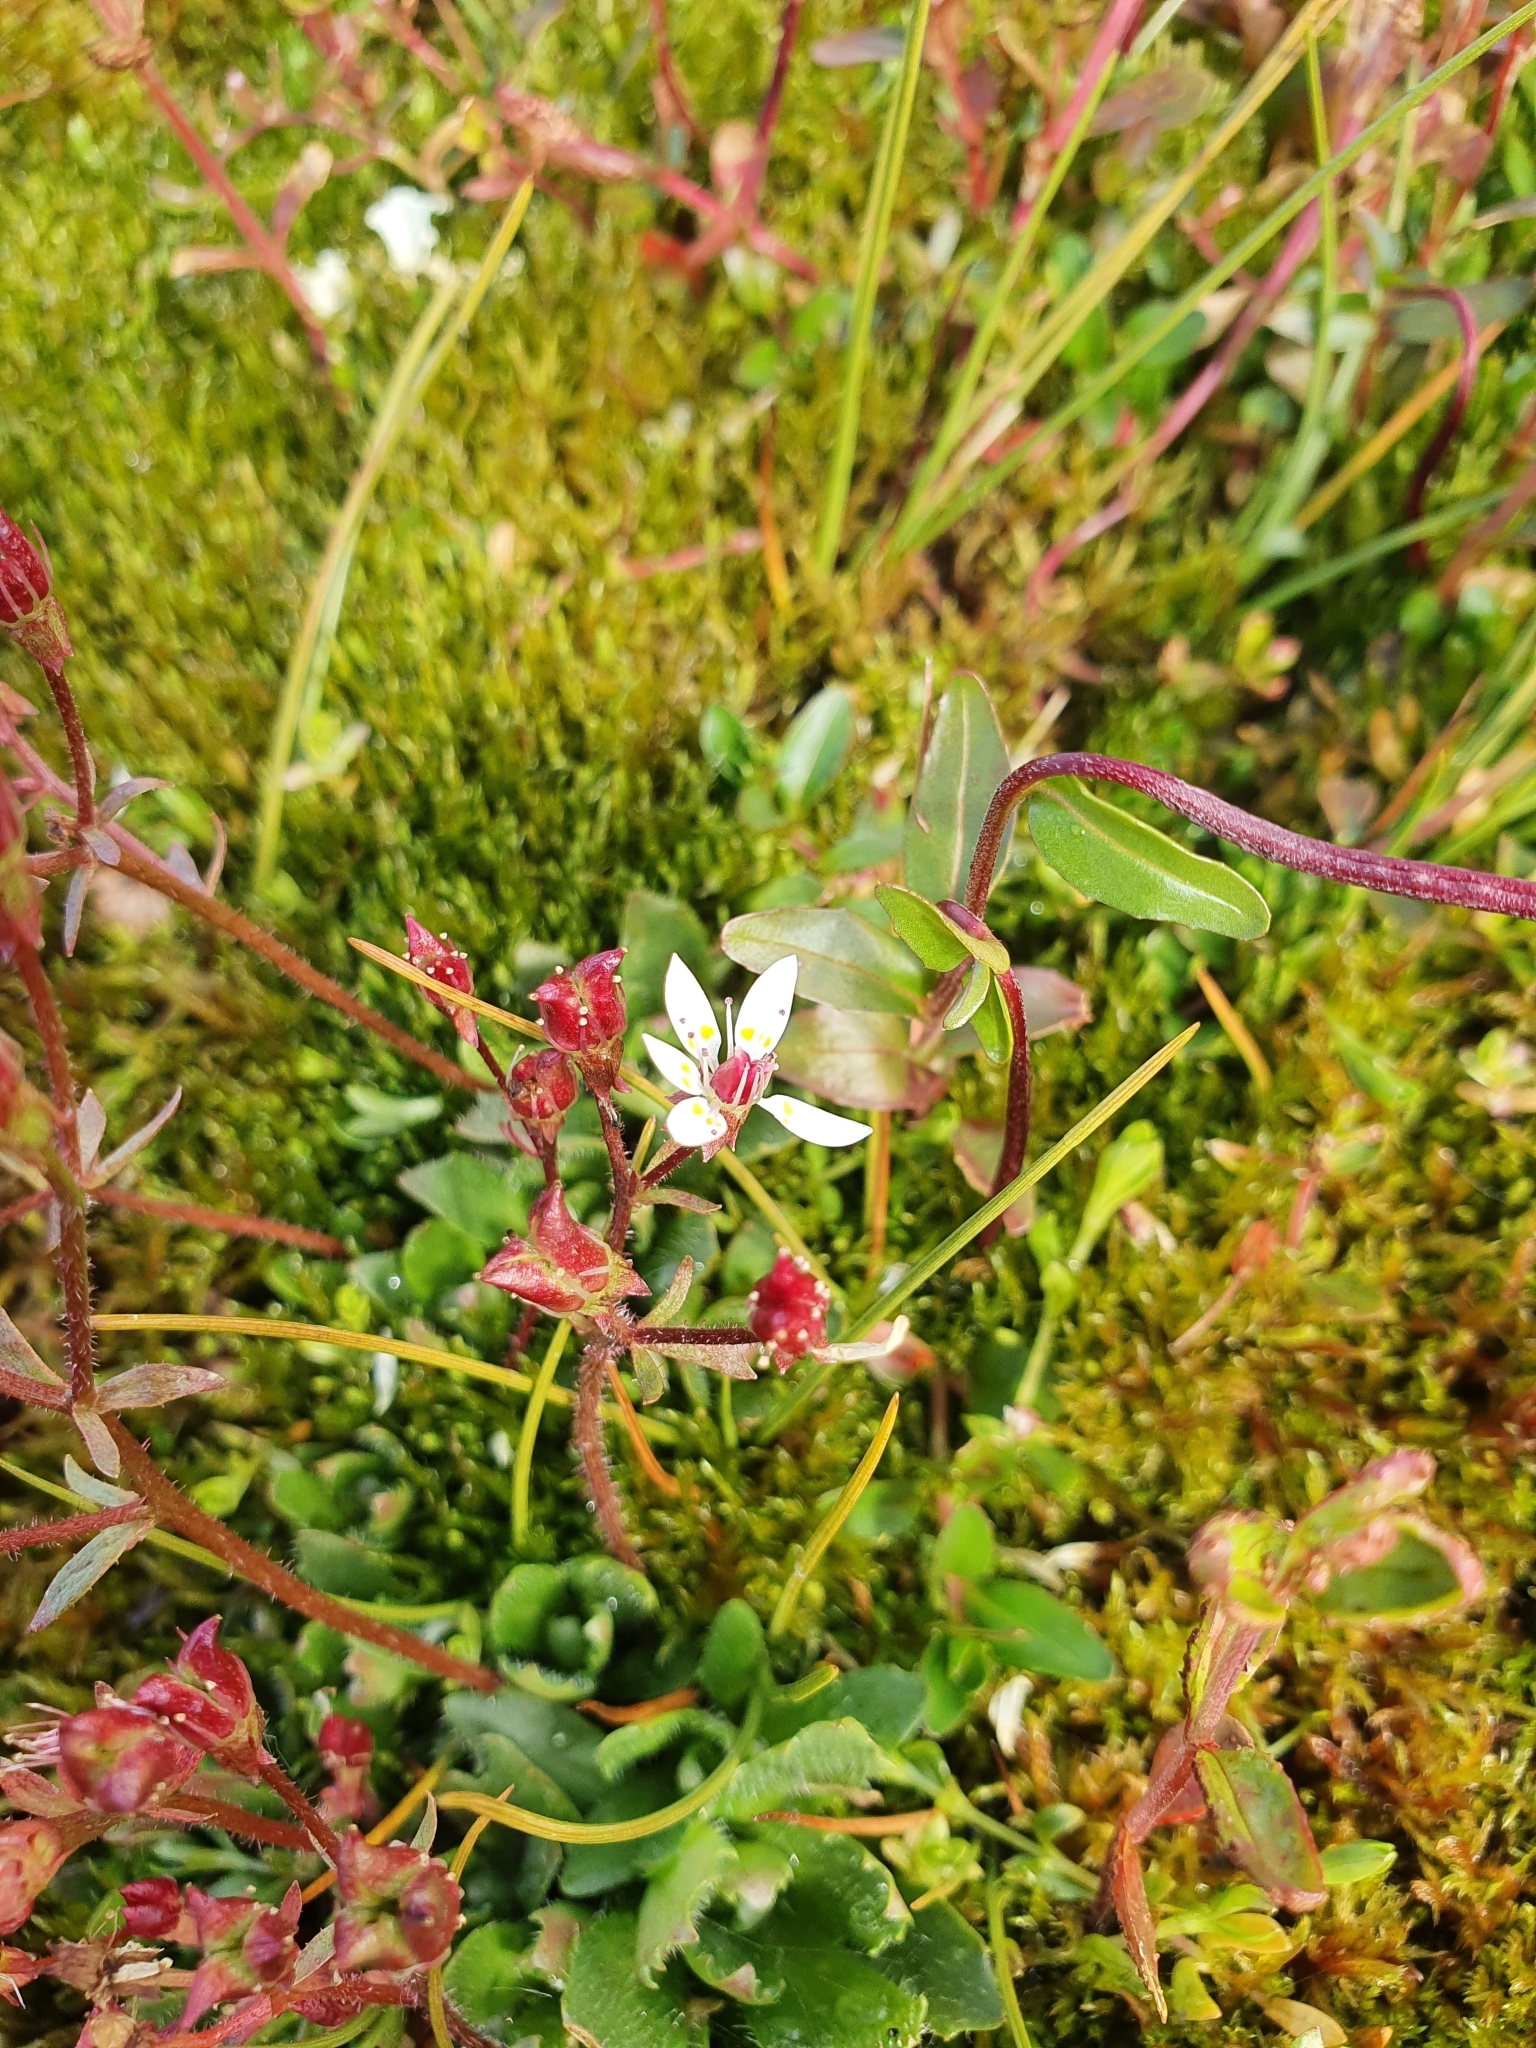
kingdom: Plantae
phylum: Tracheophyta
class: Magnoliopsida
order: Saxifragales
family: Saxifragaceae
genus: Micranthes
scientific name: Micranthes stellaris
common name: Starry saxifrage
